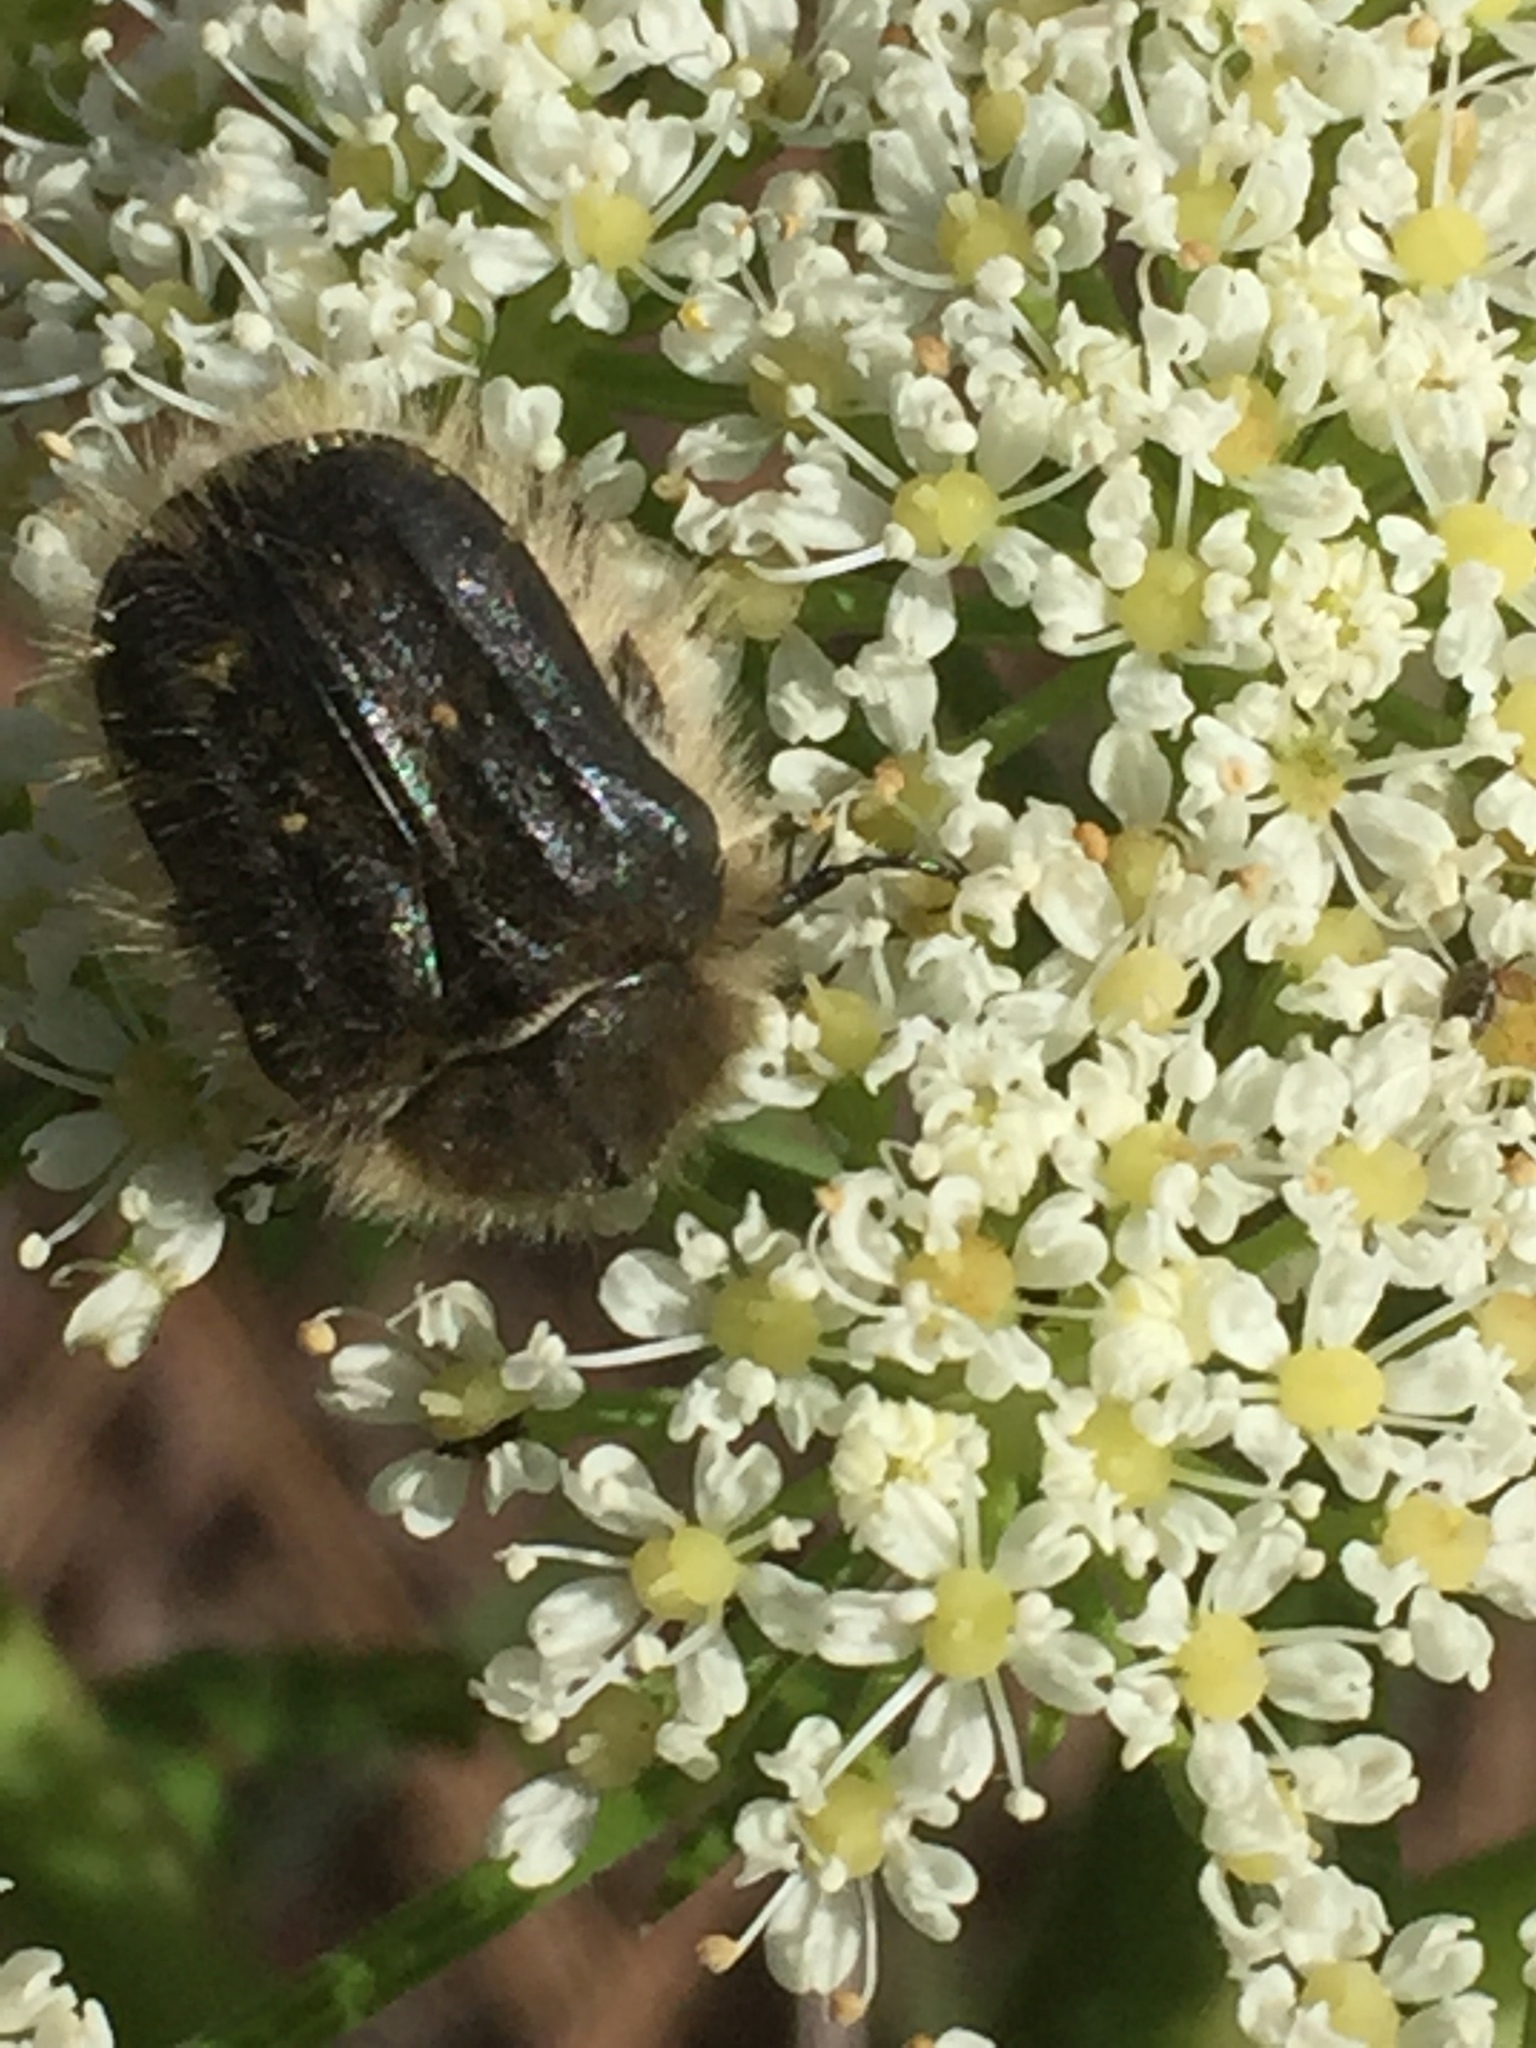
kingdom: Animalia
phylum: Arthropoda
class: Insecta
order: Coleoptera
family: Scarabaeidae
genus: Tropinota
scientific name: Tropinota squalida
